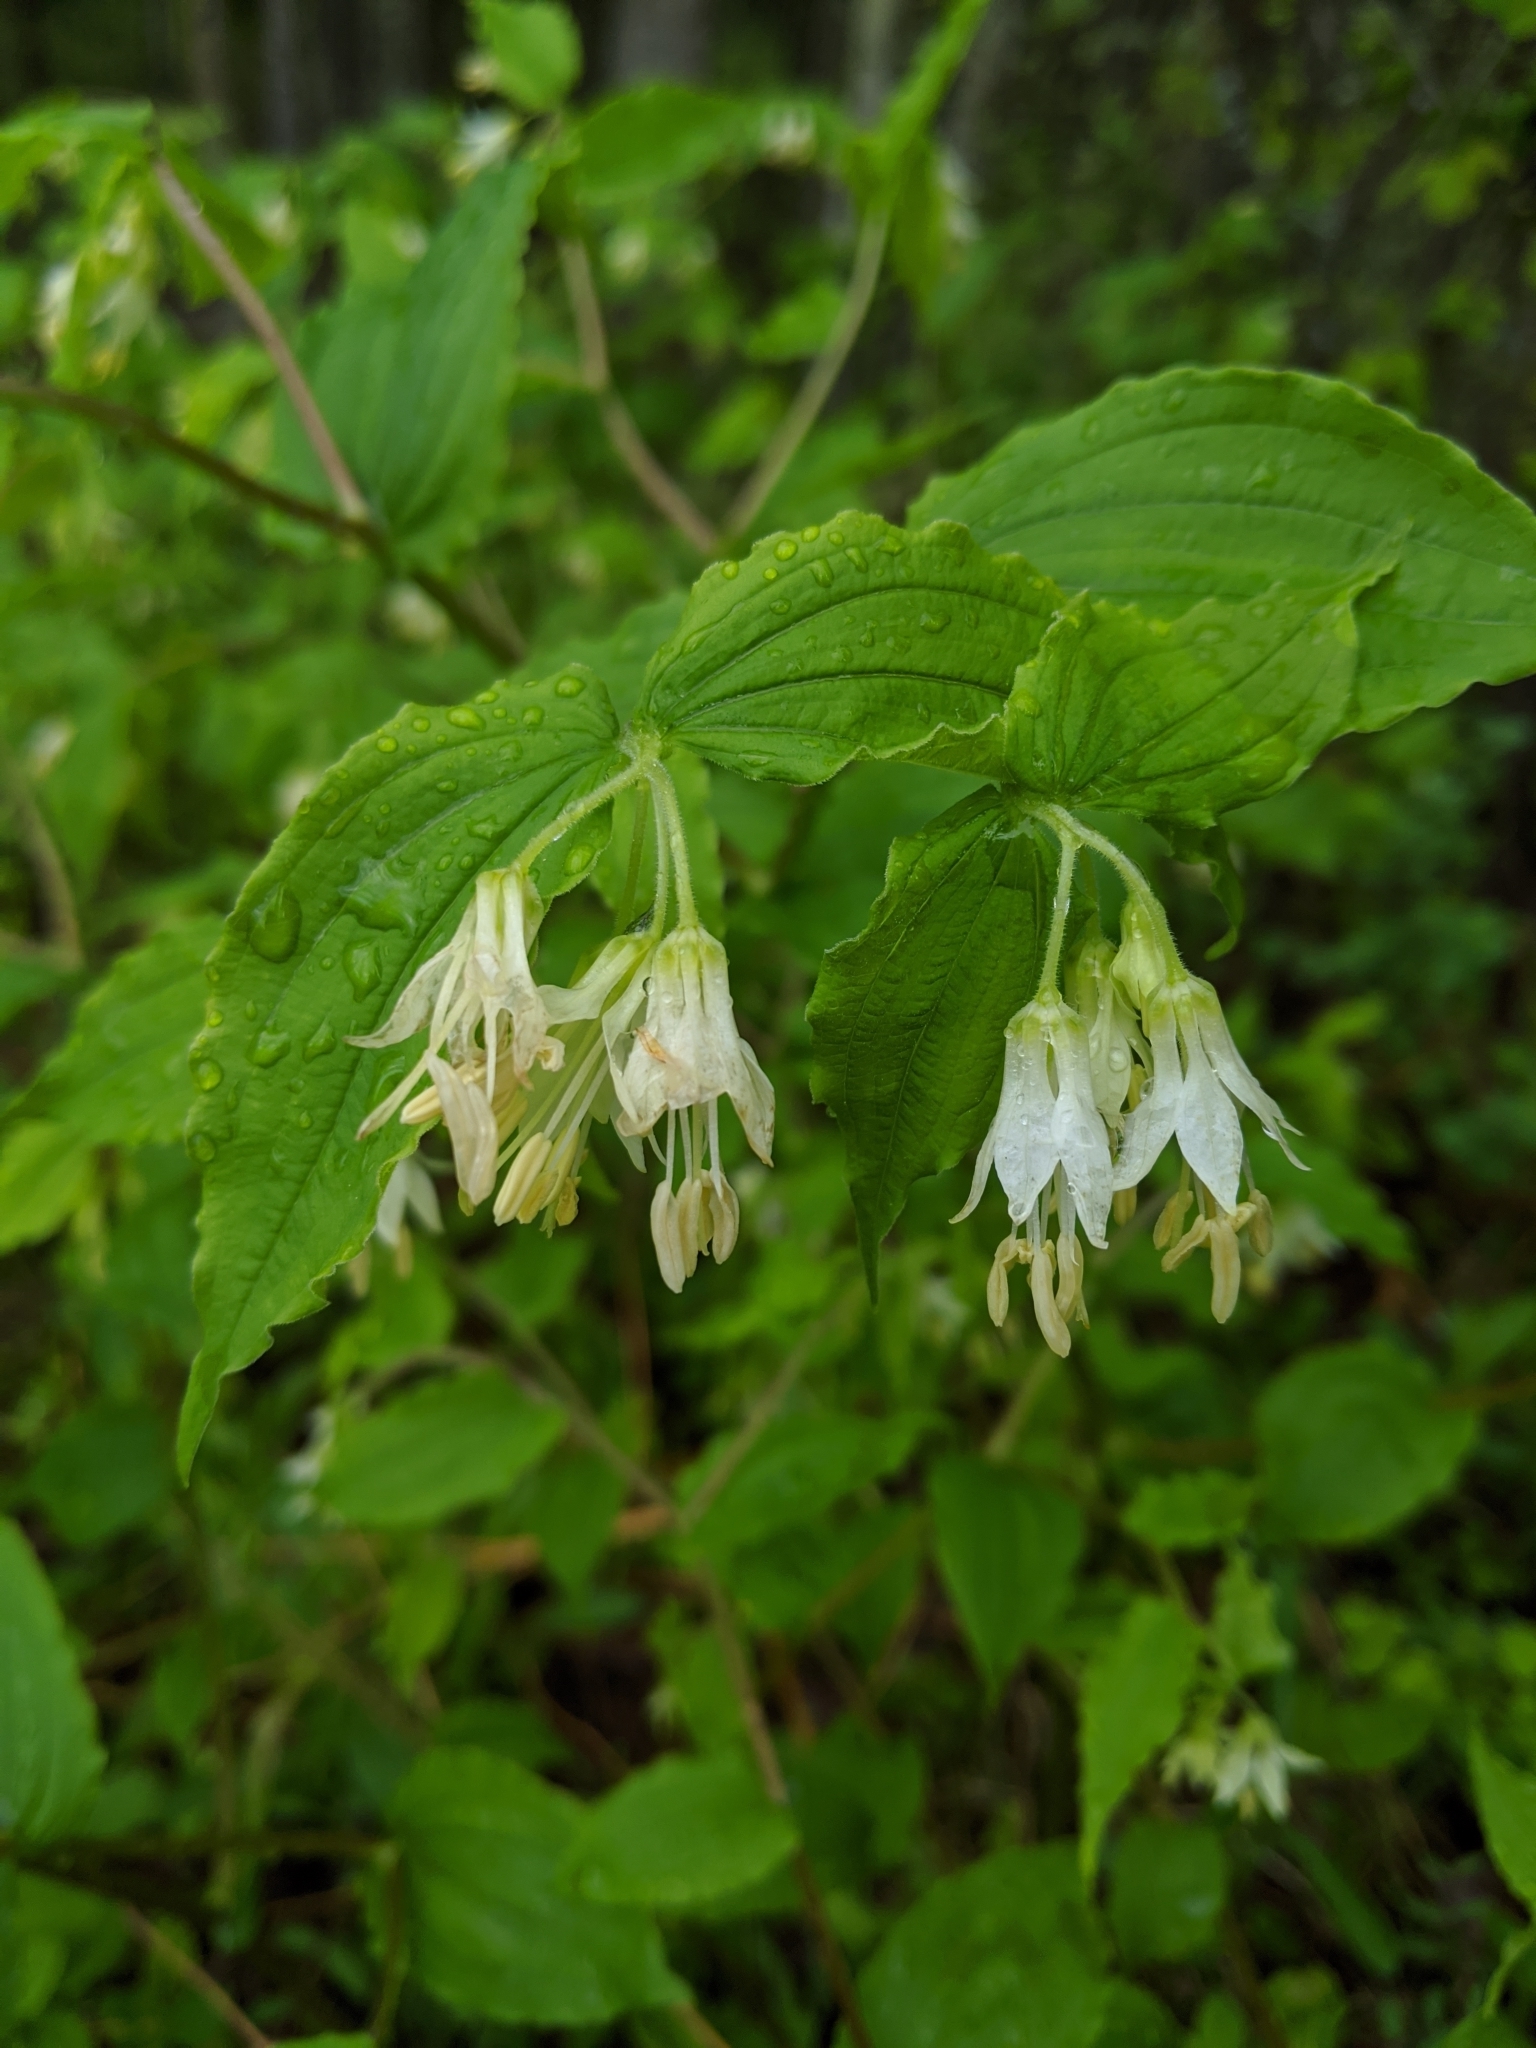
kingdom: Plantae
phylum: Tracheophyta
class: Liliopsida
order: Liliales
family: Liliaceae
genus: Prosartes
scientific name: Prosartes hookeri
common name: Fairy-bells
